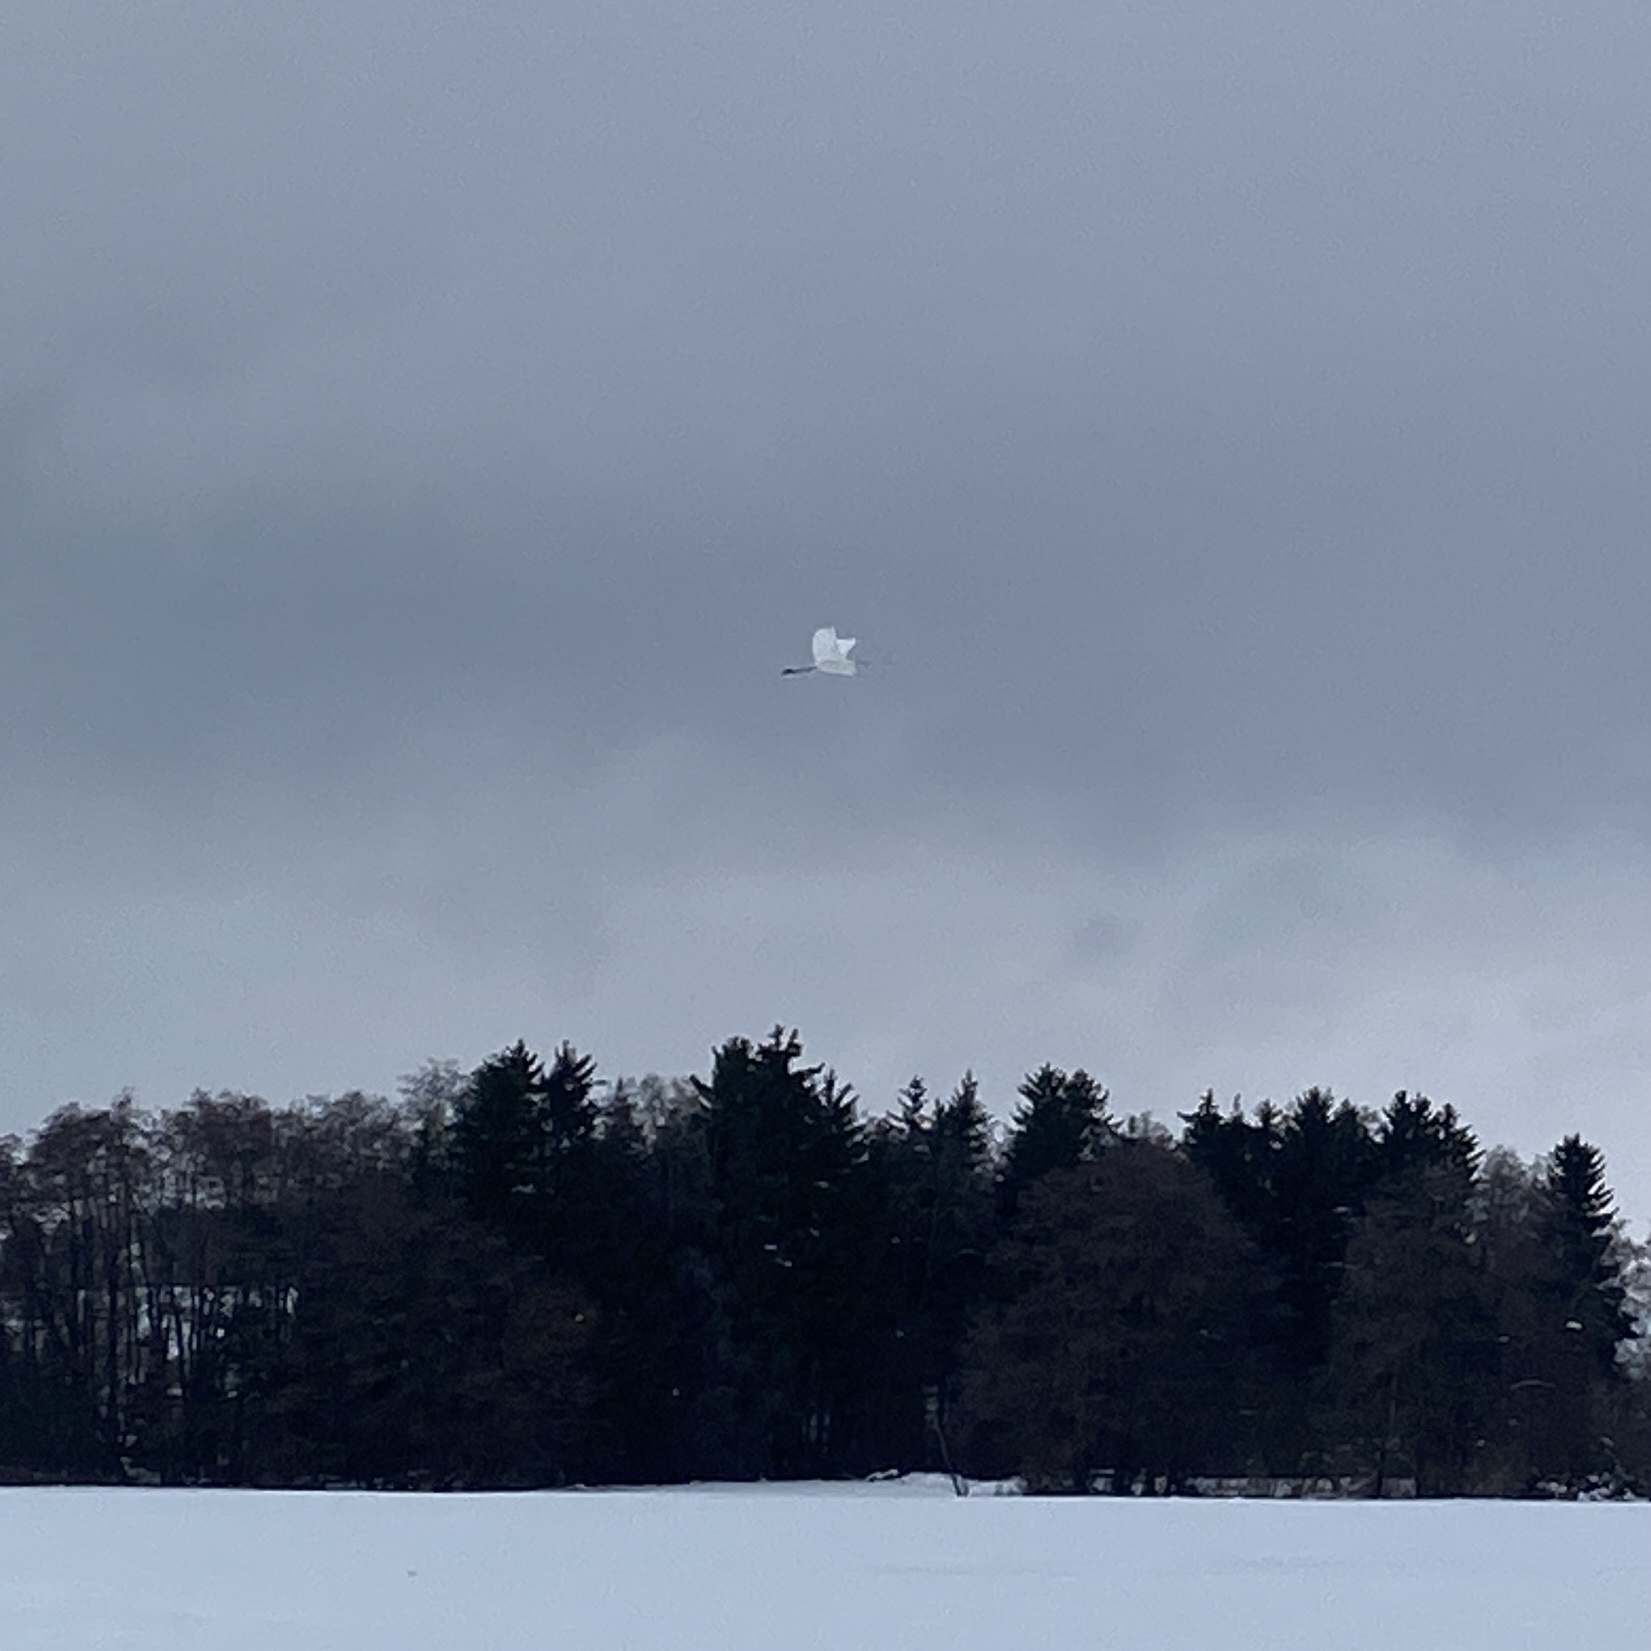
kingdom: Animalia
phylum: Chordata
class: Aves
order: Pelecaniformes
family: Ardeidae
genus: Ardea
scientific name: Ardea alba
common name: Great egret
